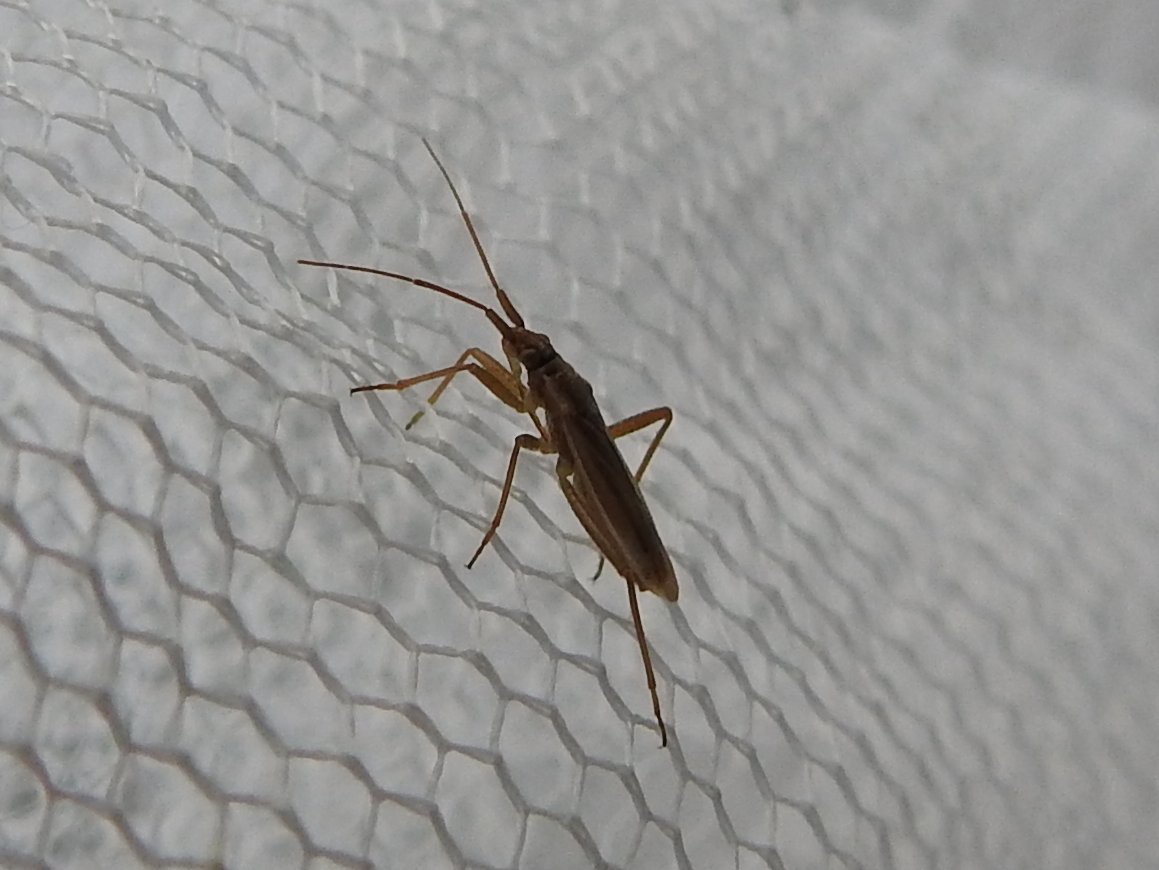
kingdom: Animalia
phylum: Arthropoda
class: Insecta
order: Hemiptera
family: Miridae
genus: Stenodema
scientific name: Stenodema holsata
